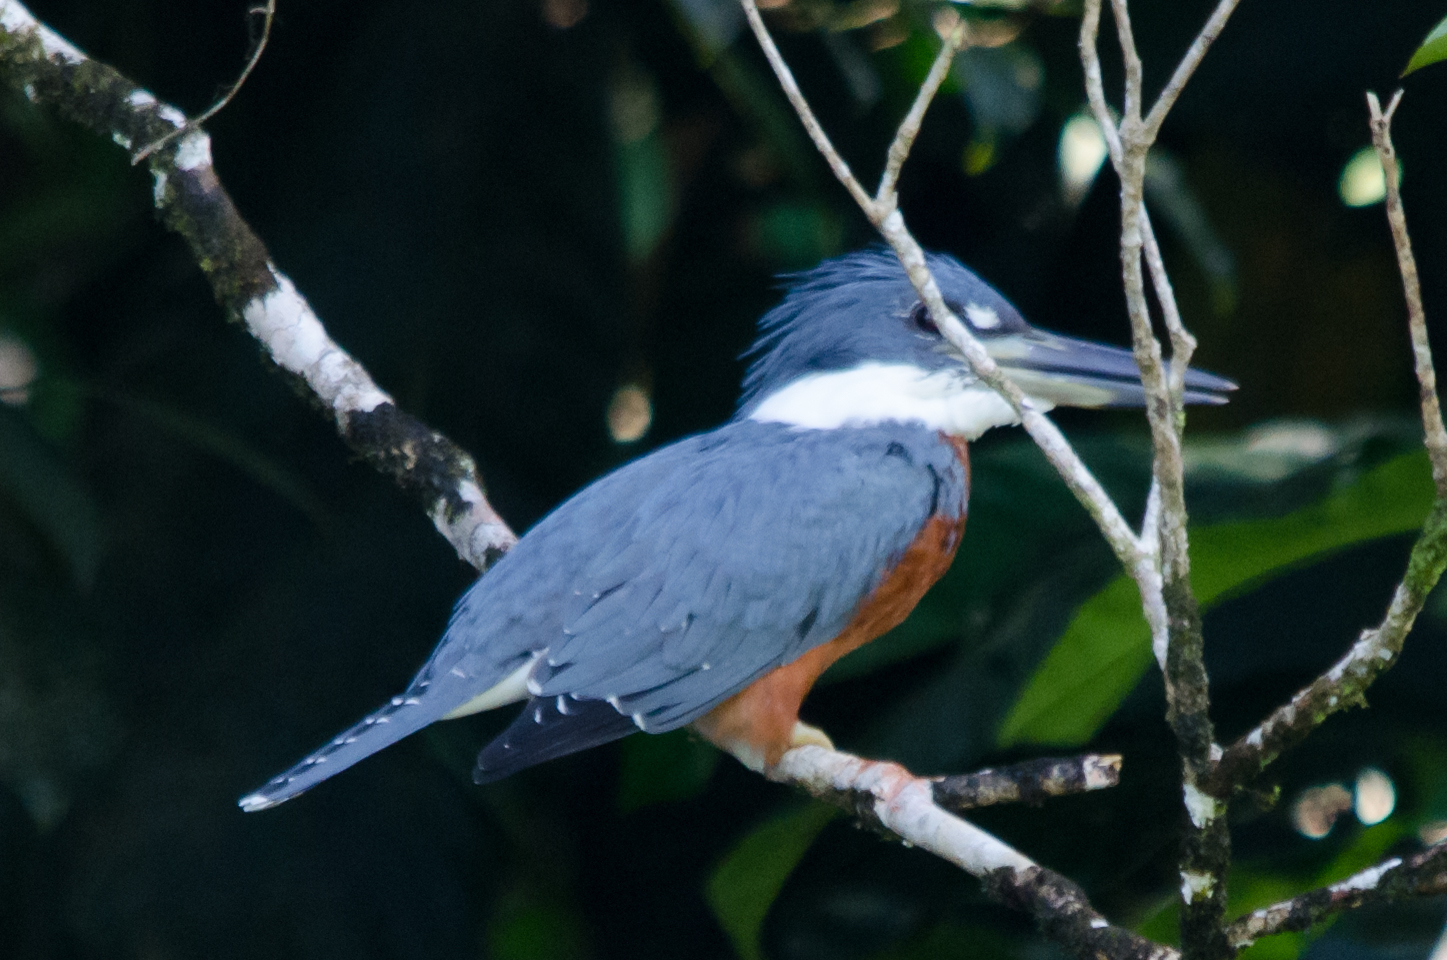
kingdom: Animalia
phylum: Chordata
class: Aves
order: Coraciiformes
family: Alcedinidae
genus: Megaceryle
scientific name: Megaceryle torquata
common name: Ringed kingfisher
